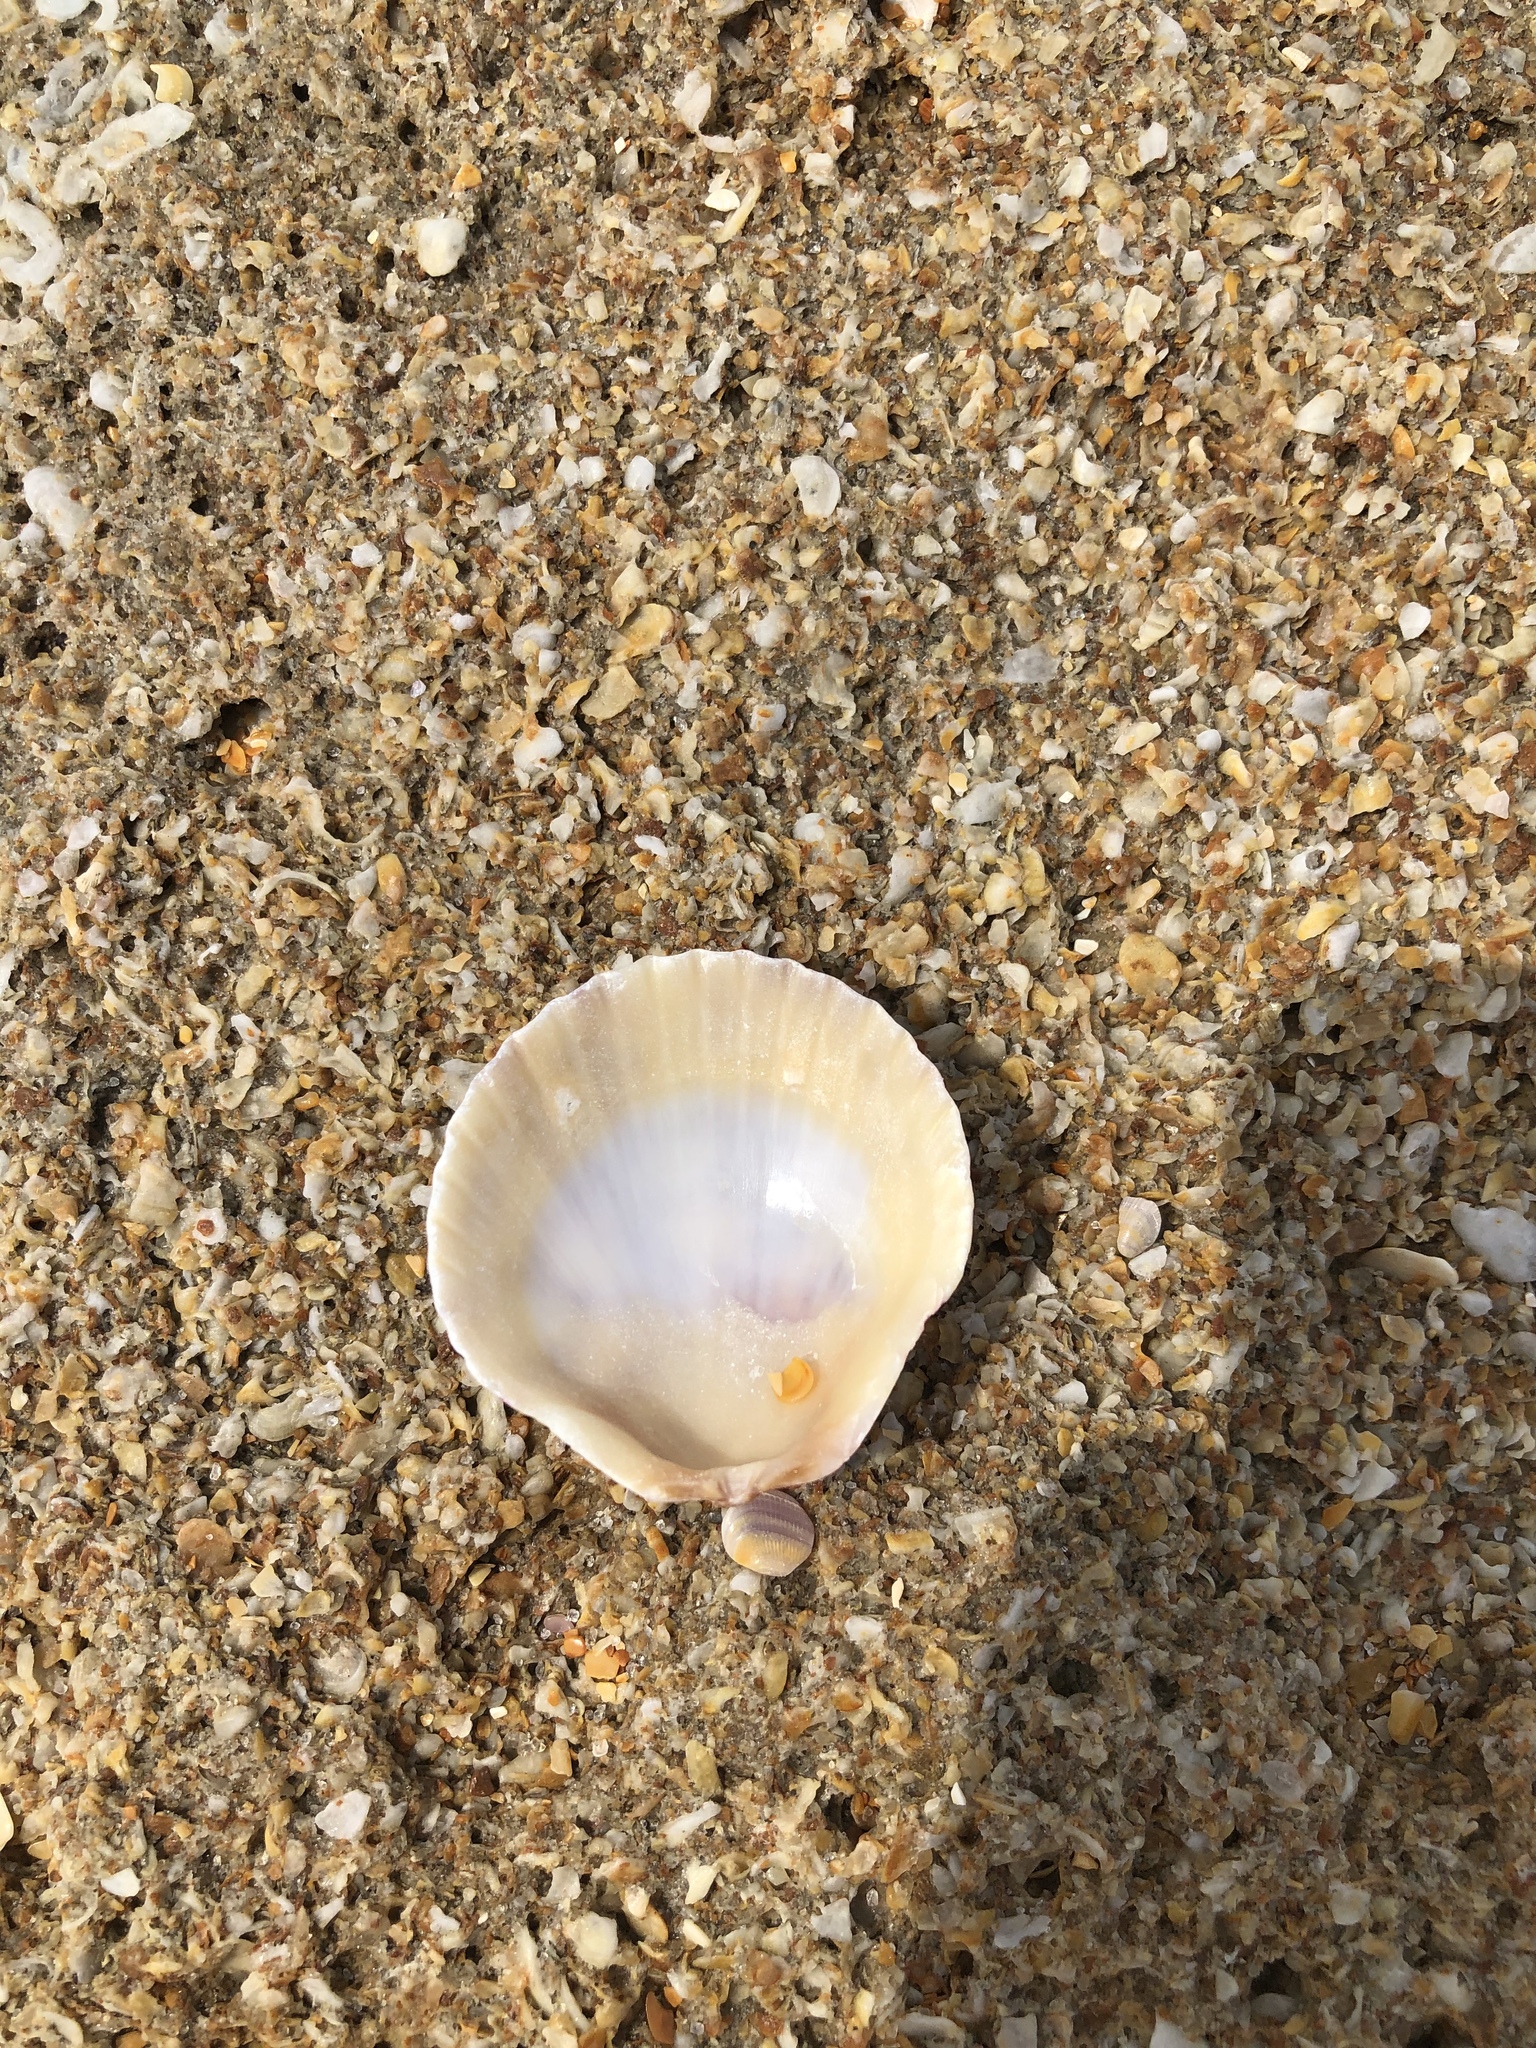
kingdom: Animalia
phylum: Mollusca
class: Bivalvia
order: Pectinida
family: Pectinidae
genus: Argopecten
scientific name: Argopecten gibbus
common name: Atlantic calico scallop
